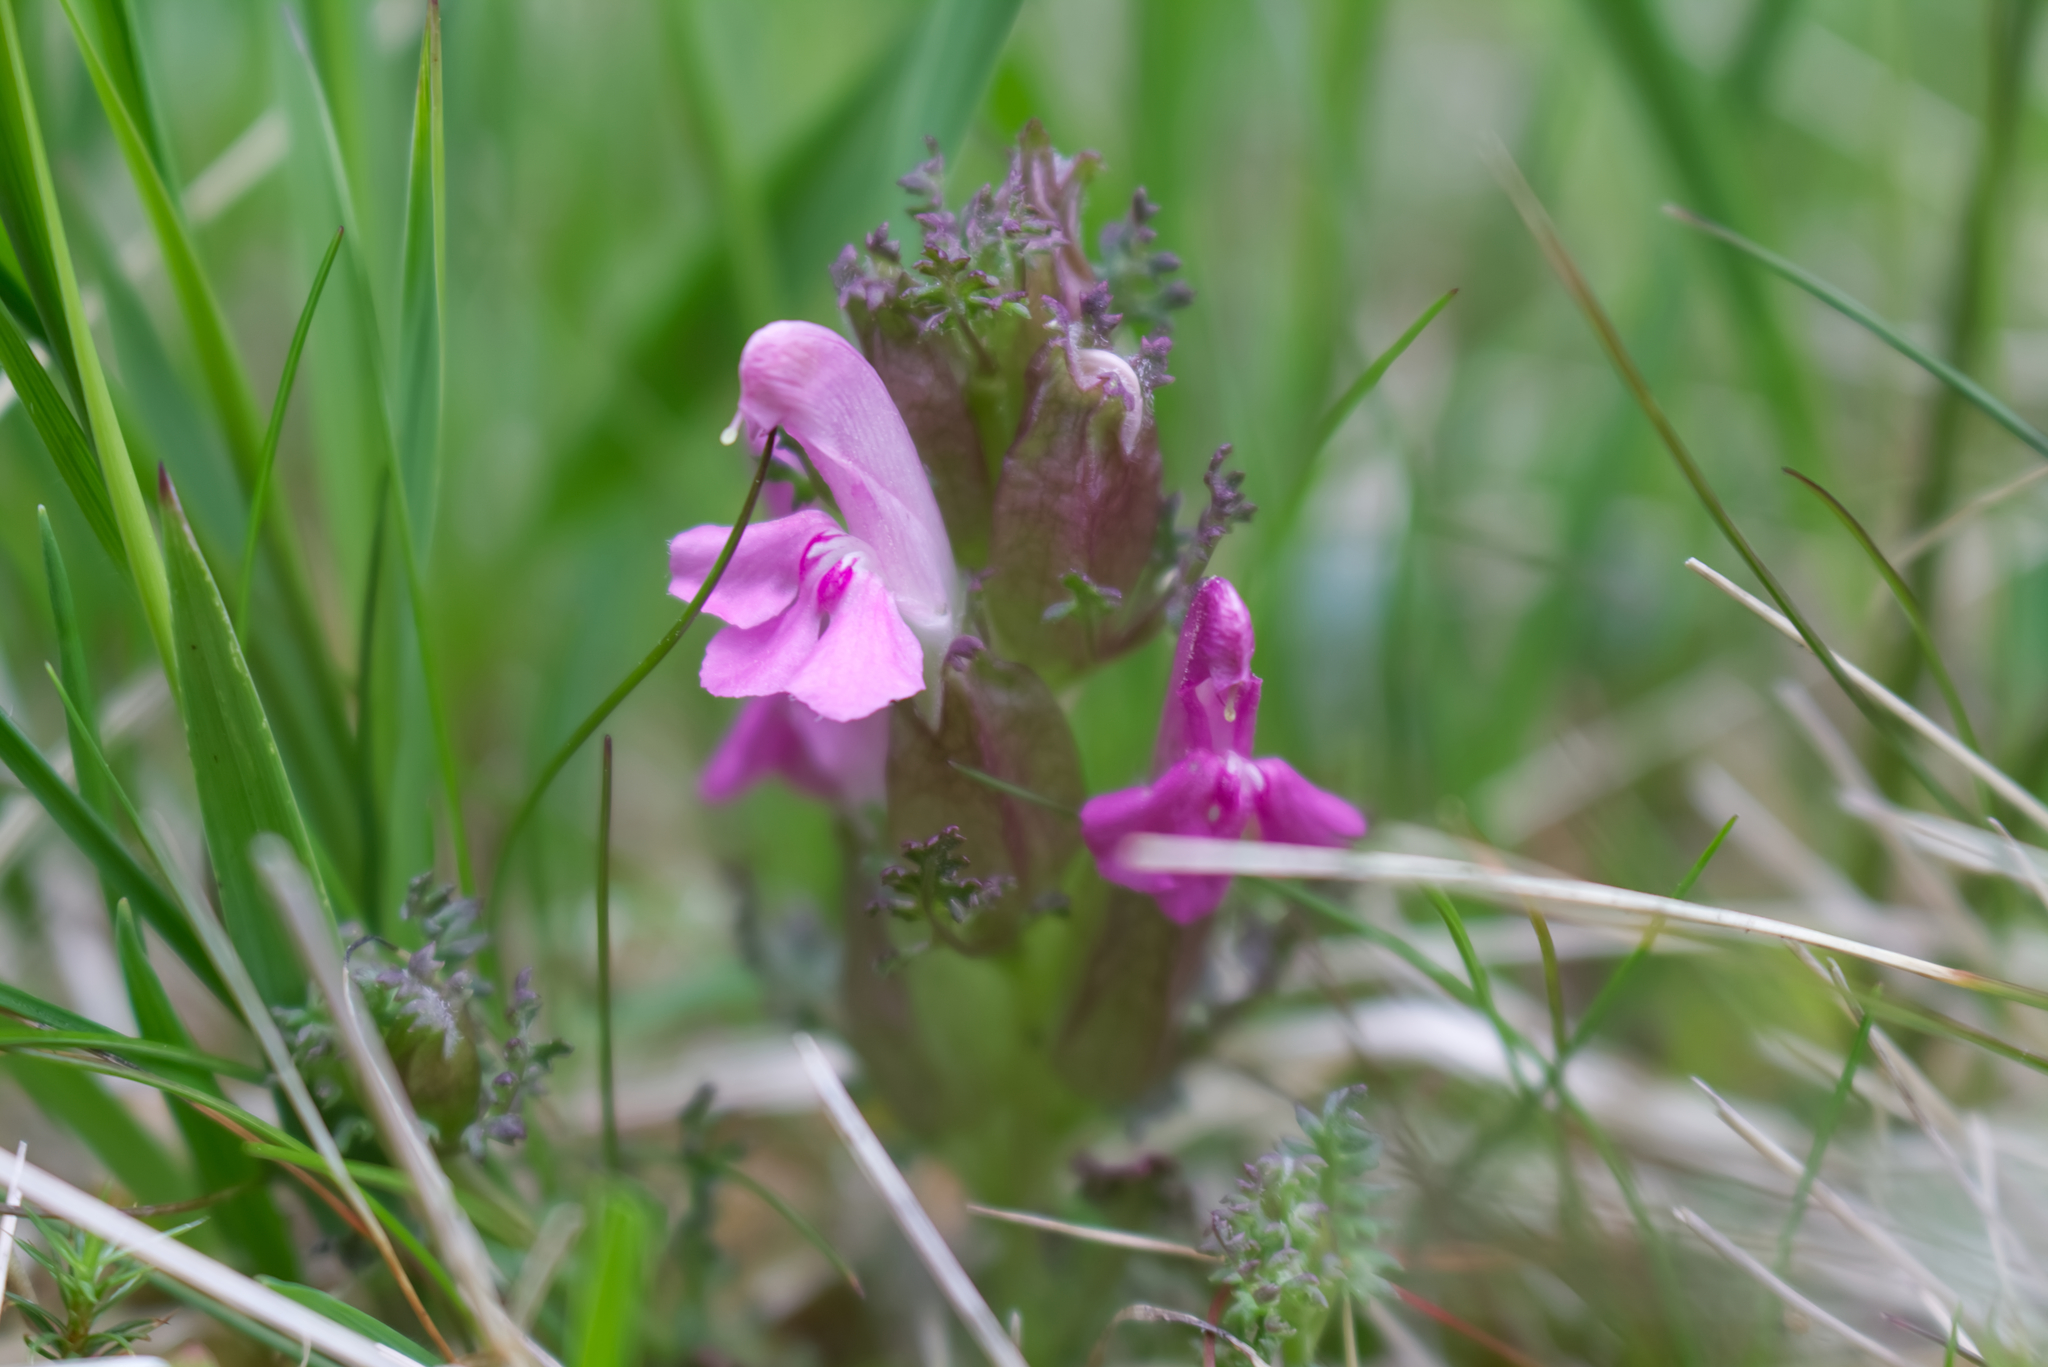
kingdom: Plantae
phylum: Tracheophyta
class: Magnoliopsida
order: Lamiales
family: Orobanchaceae
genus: Pedicularis
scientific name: Pedicularis sylvatica
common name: Lousewort
